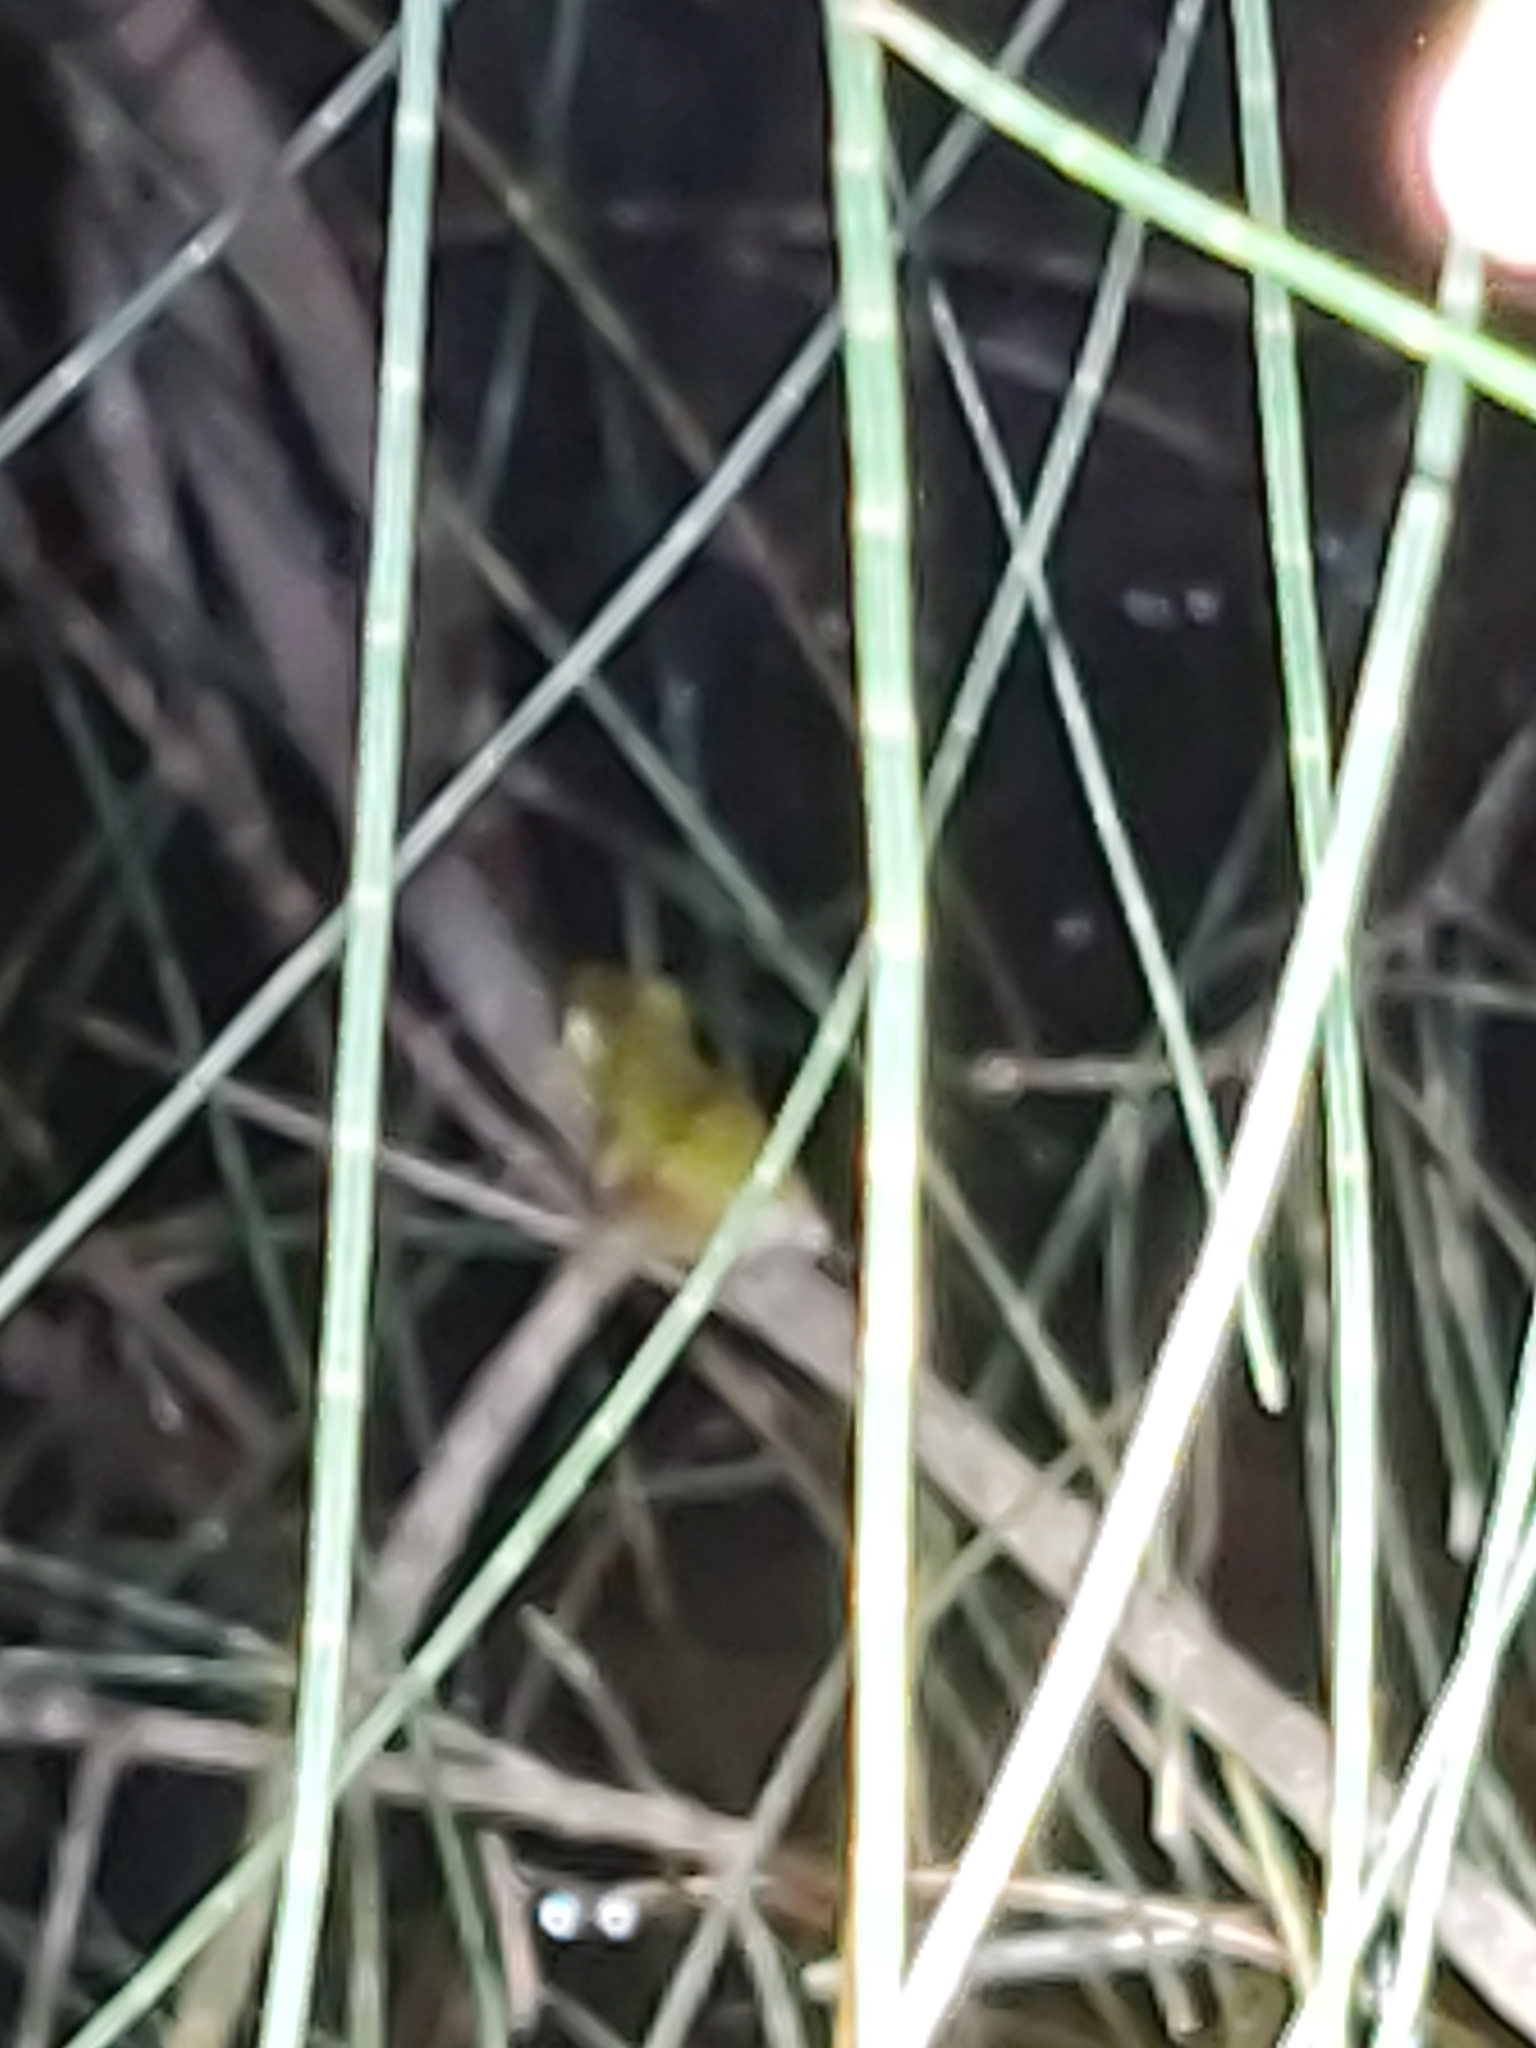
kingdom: Animalia
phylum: Chordata
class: Amphibia
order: Anura
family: Pelodryadidae
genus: Litoria
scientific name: Litoria fallax
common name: Eastern dwarf treefrog
